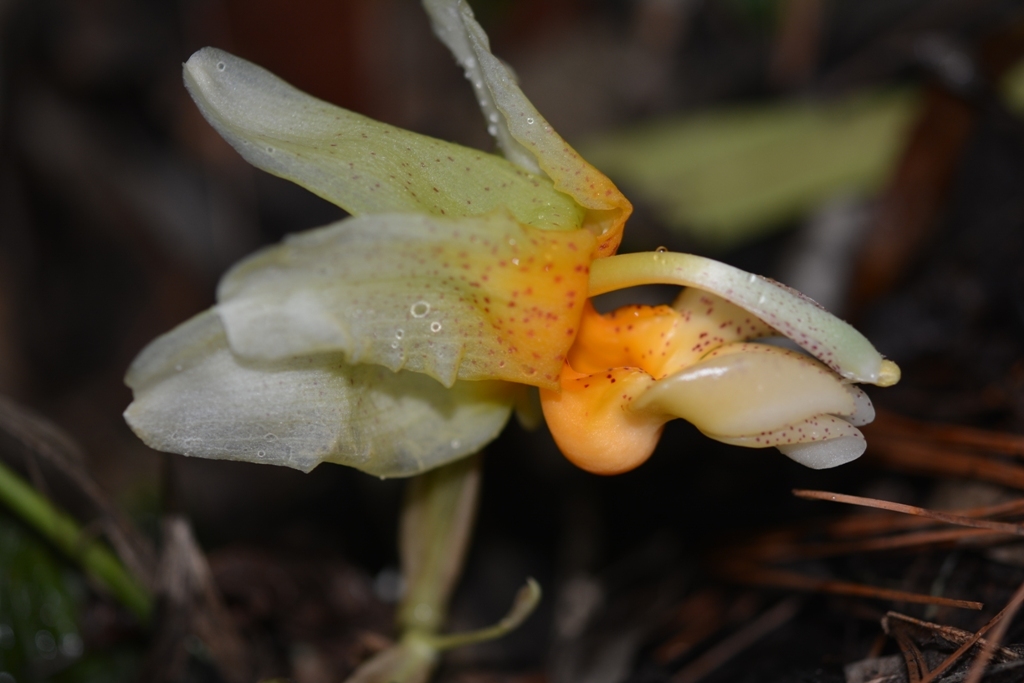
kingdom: Plantae
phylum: Tracheophyta
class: Liliopsida
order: Asparagales
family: Orchidaceae
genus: Stanhopea
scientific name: Stanhopea saccata
